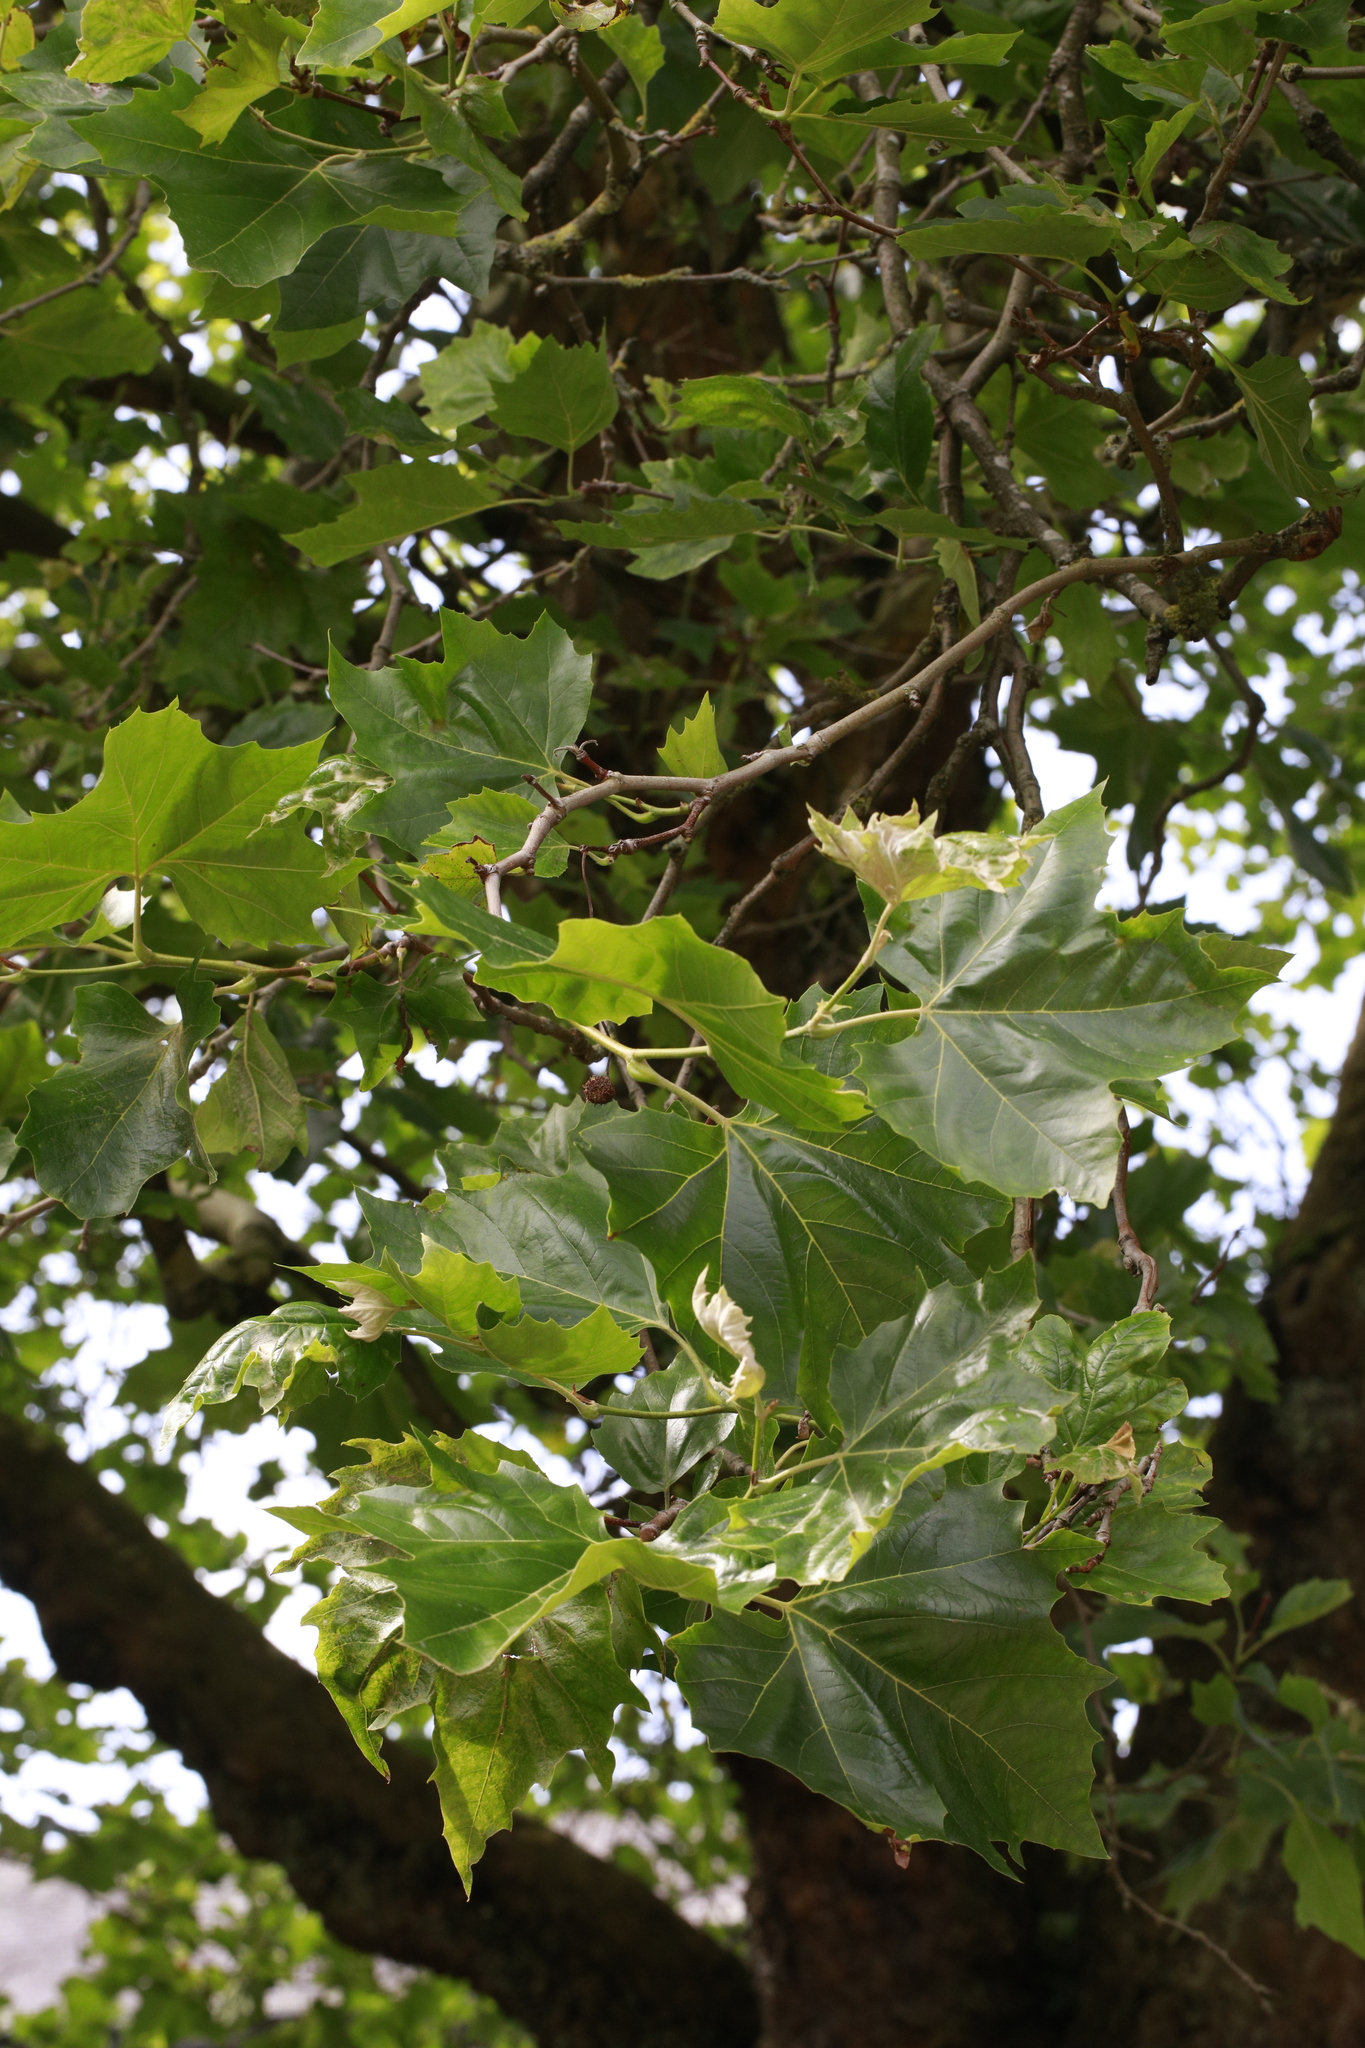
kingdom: Plantae
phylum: Tracheophyta
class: Magnoliopsida
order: Proteales
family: Platanaceae
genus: Platanus
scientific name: Platanus hispanica
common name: London plane
